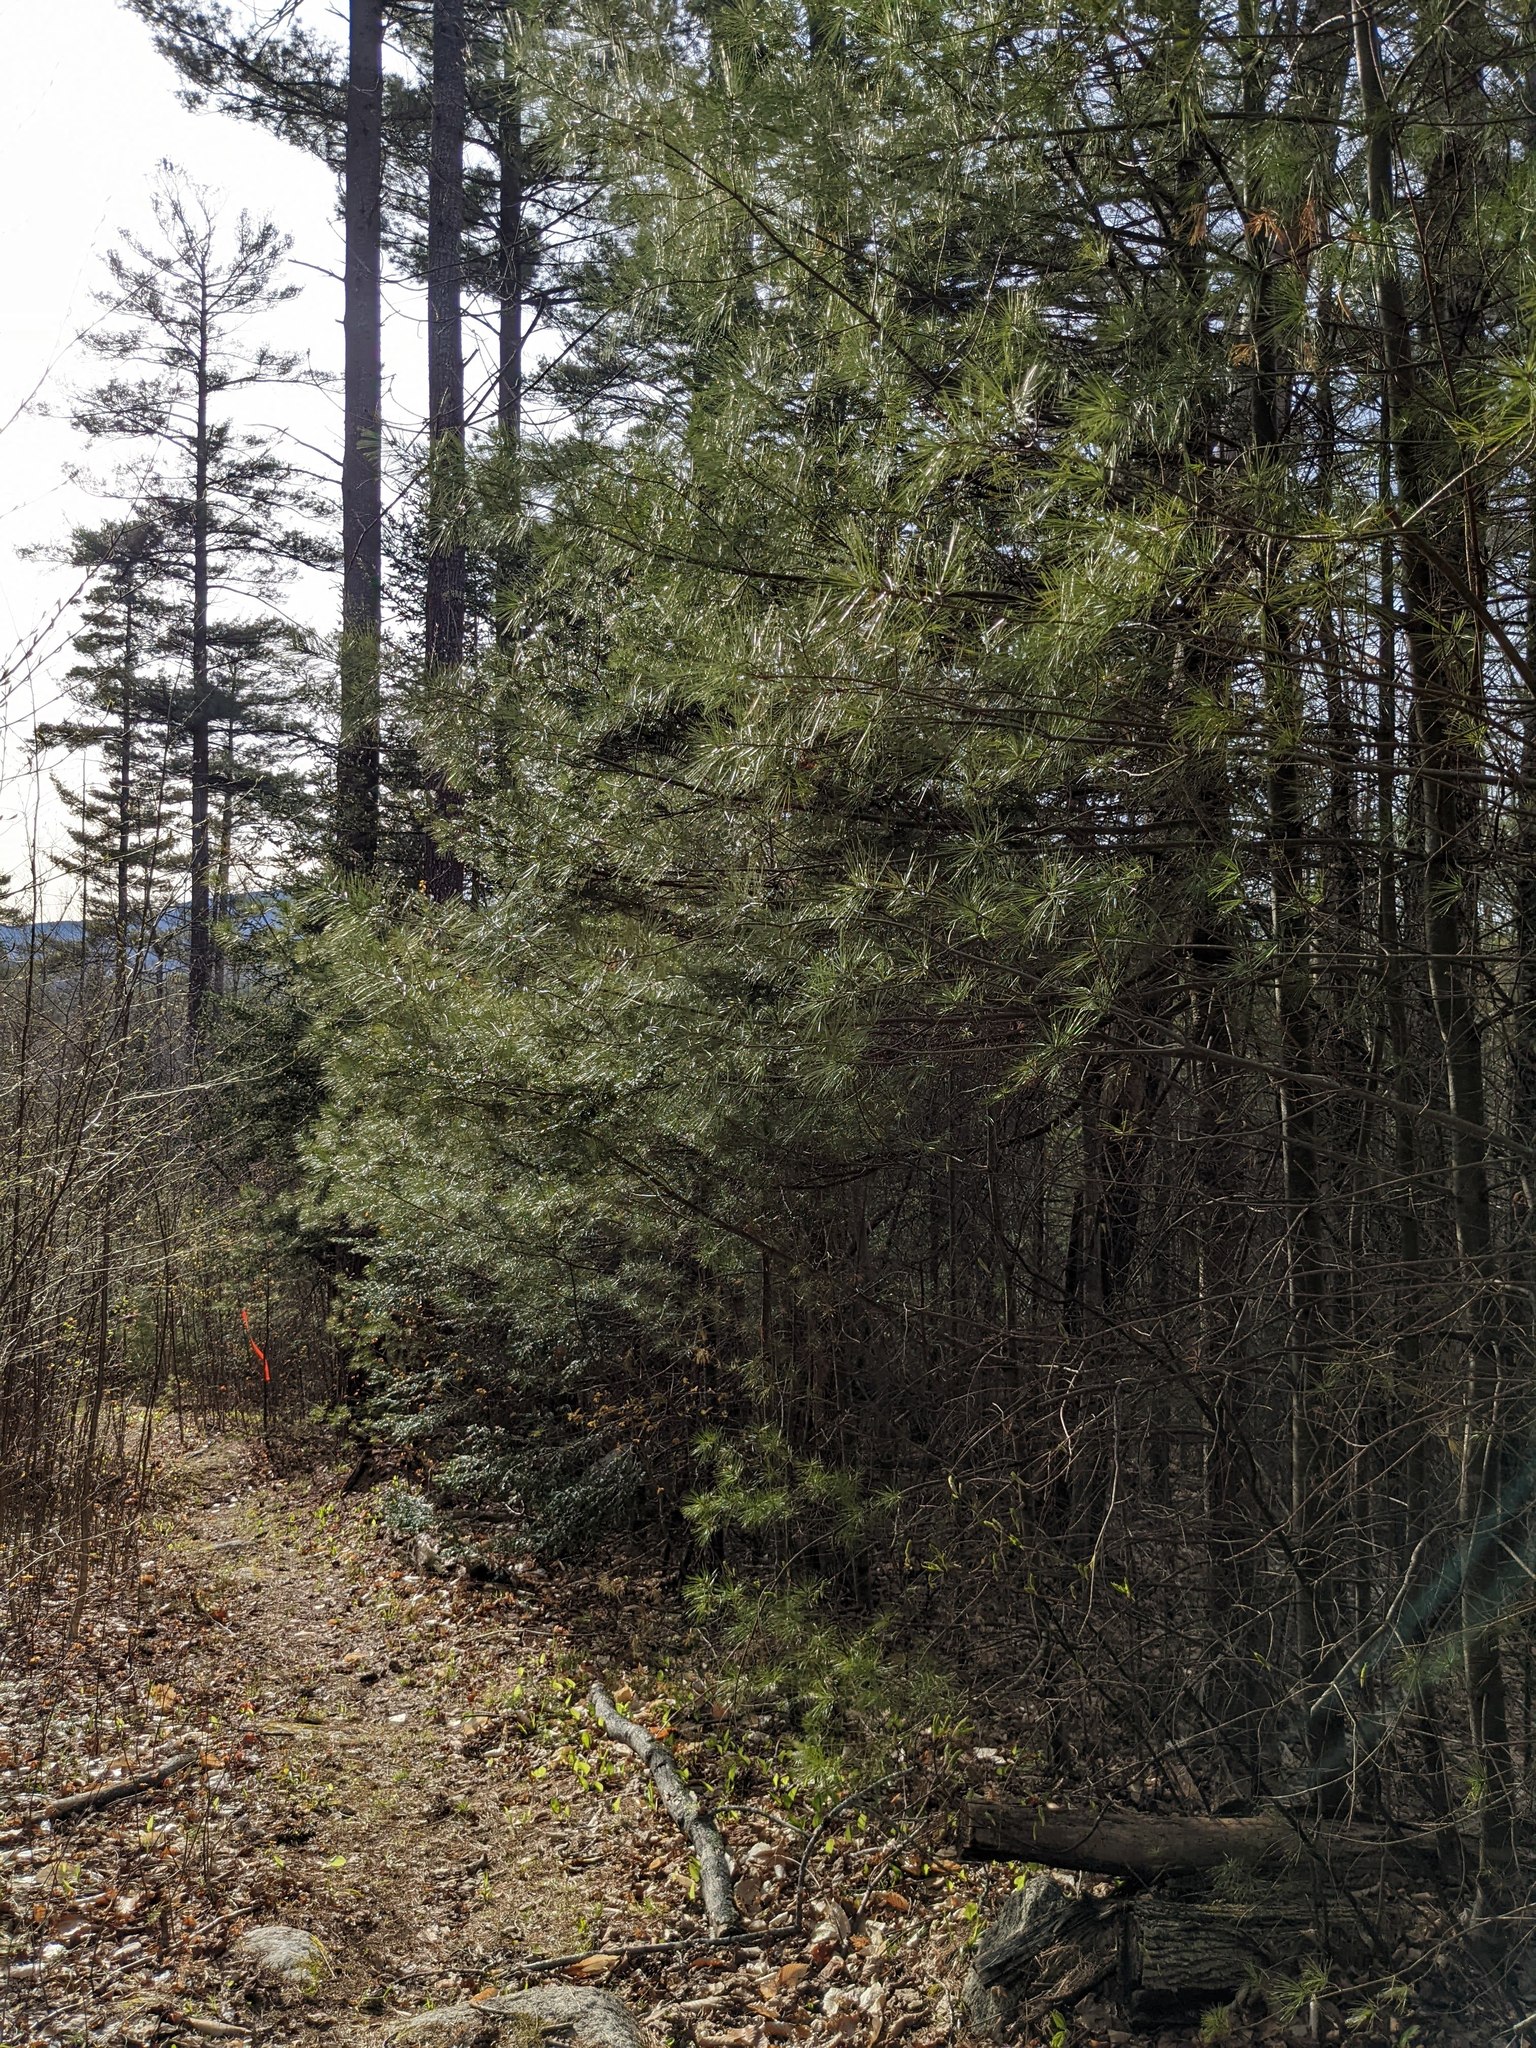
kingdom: Plantae
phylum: Tracheophyta
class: Pinopsida
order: Pinales
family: Pinaceae
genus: Pinus
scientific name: Pinus strobus
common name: Weymouth pine
